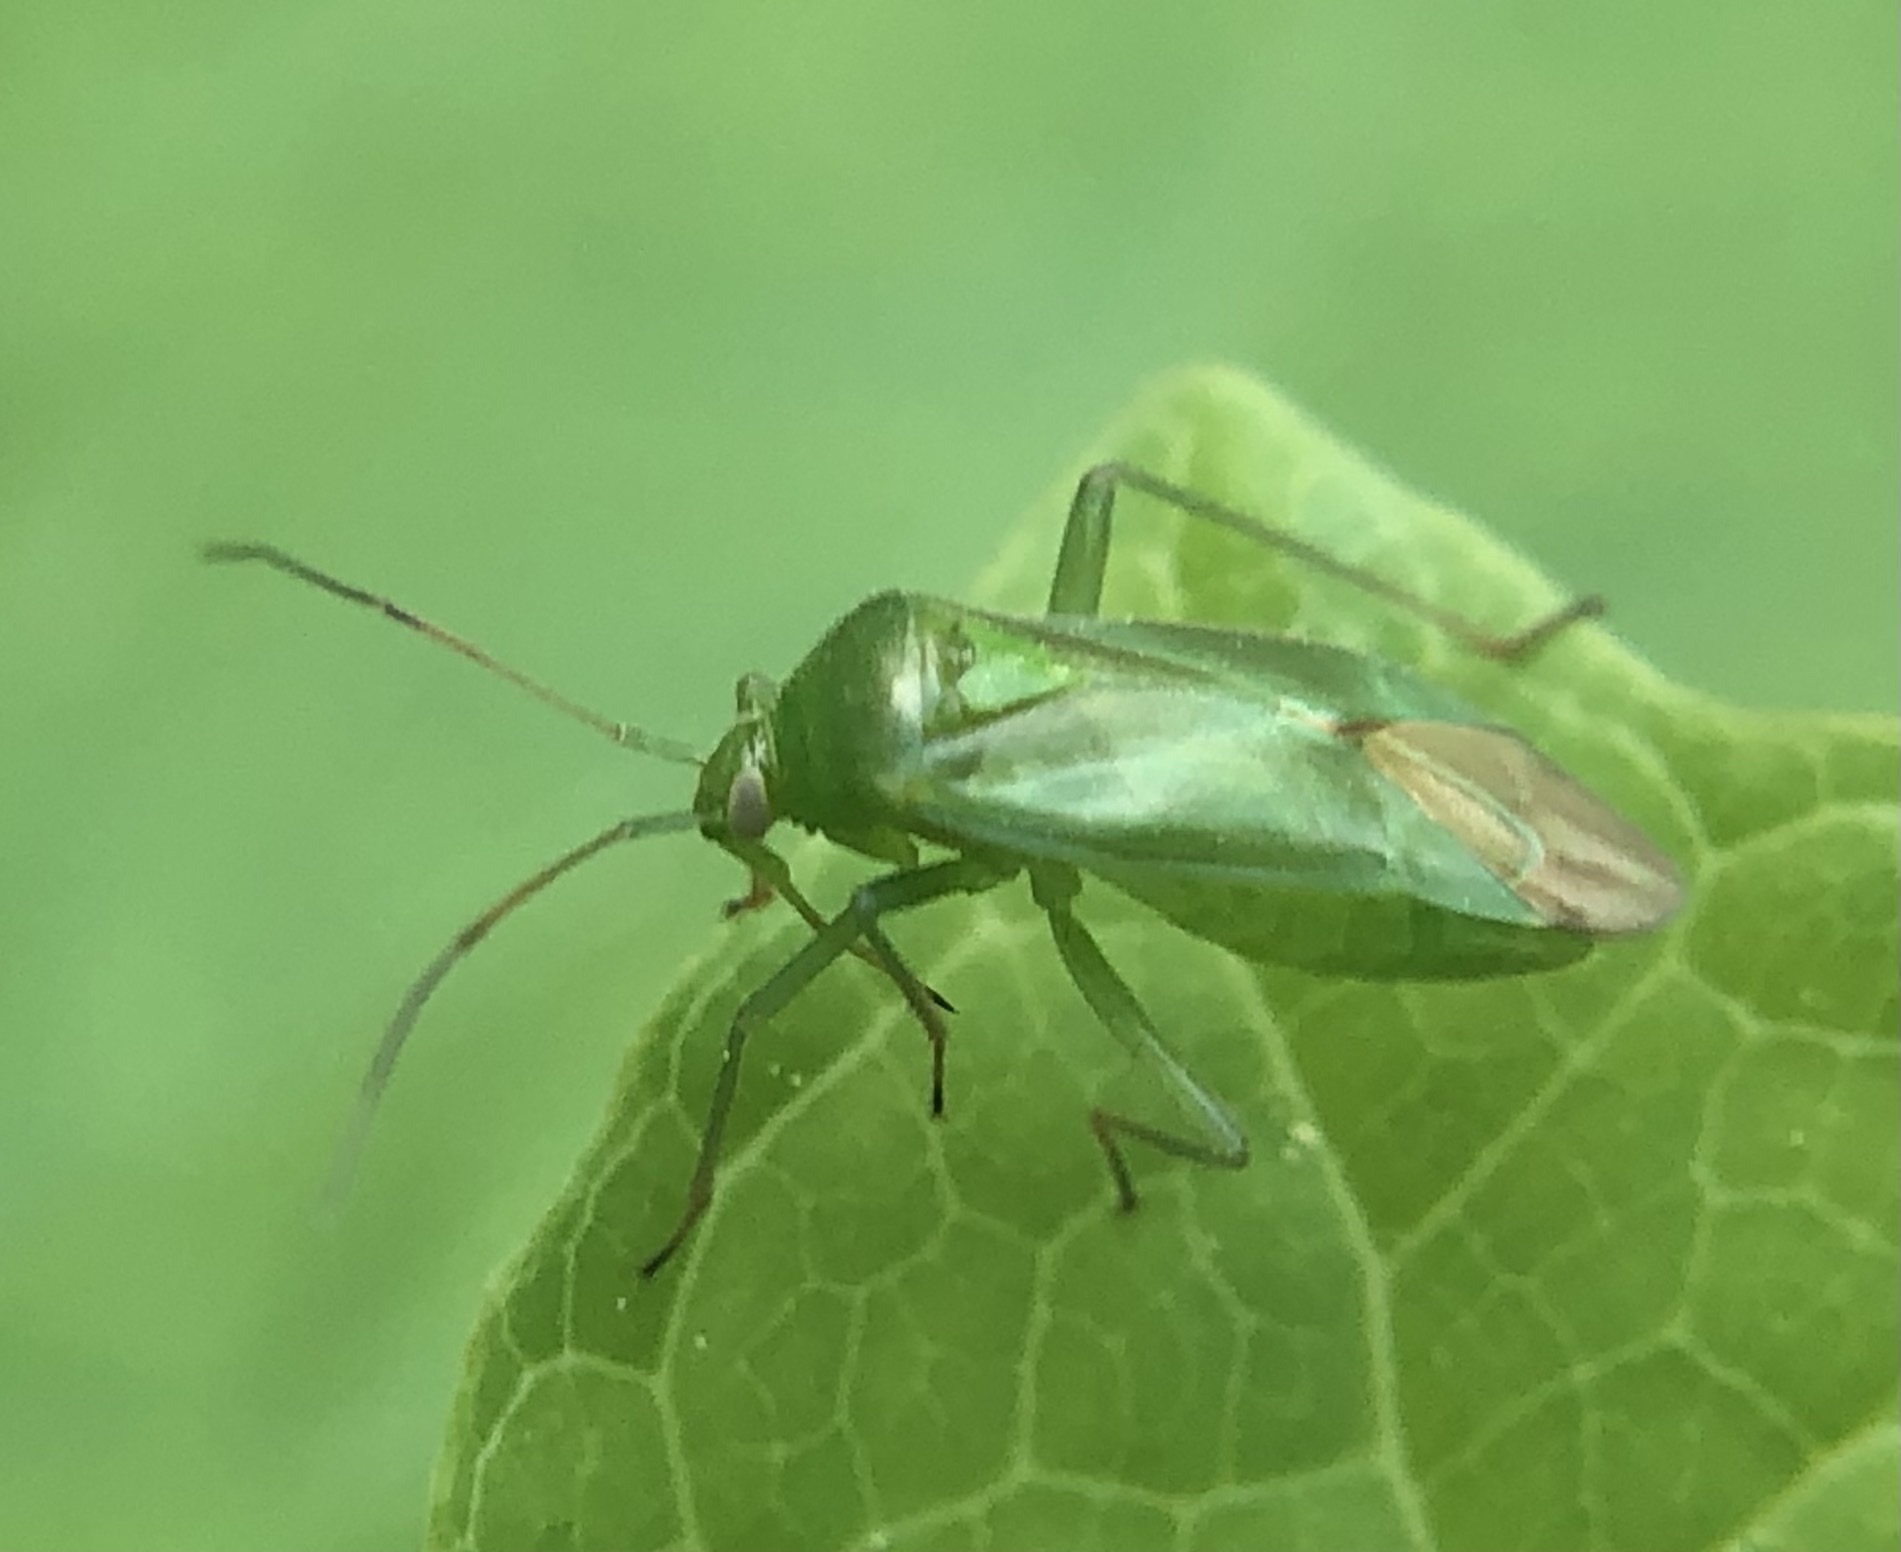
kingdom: Animalia
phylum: Arthropoda
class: Insecta
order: Hemiptera
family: Miridae
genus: Lygocoris
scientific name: Lygocoris pabulinus
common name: Common green capsid
